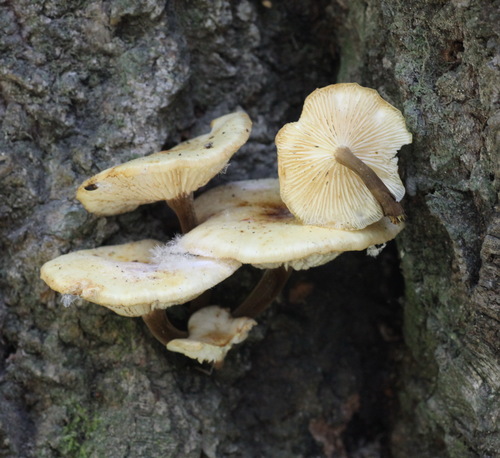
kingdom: Fungi
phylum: Basidiomycota
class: Agaricomycetes
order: Agaricales
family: Physalacriaceae
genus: Flammulina
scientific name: Flammulina velutipes
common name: Velvet shank
